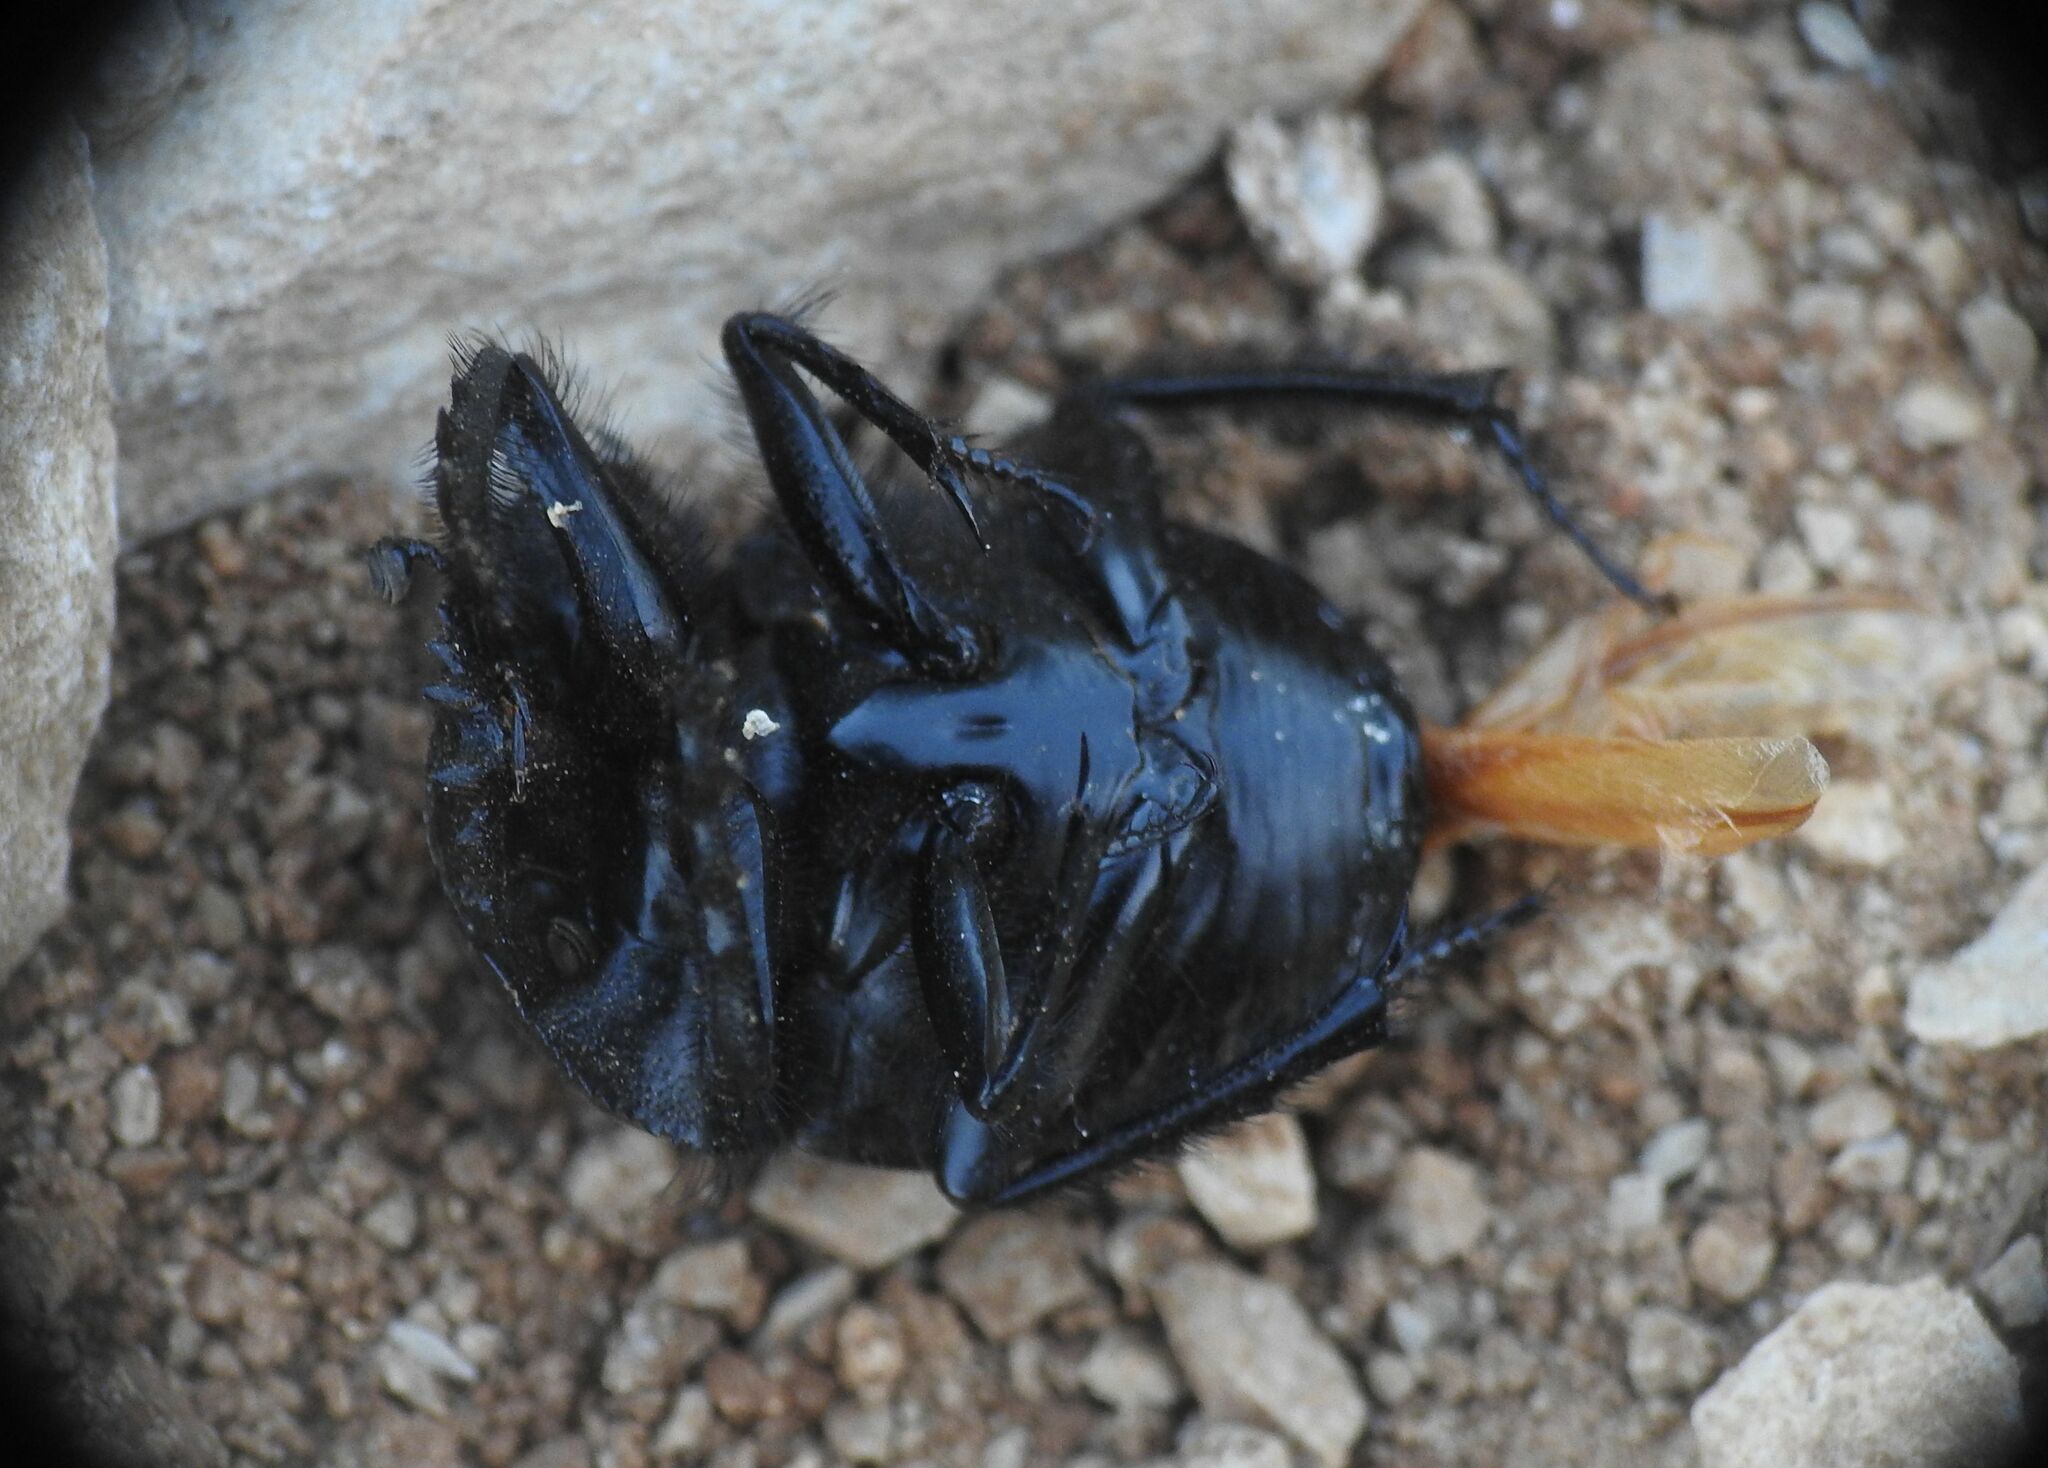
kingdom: Animalia
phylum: Arthropoda
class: Insecta
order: Coleoptera
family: Scarabaeidae
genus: Ateuchetus
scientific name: Ateuchetus laticollis
